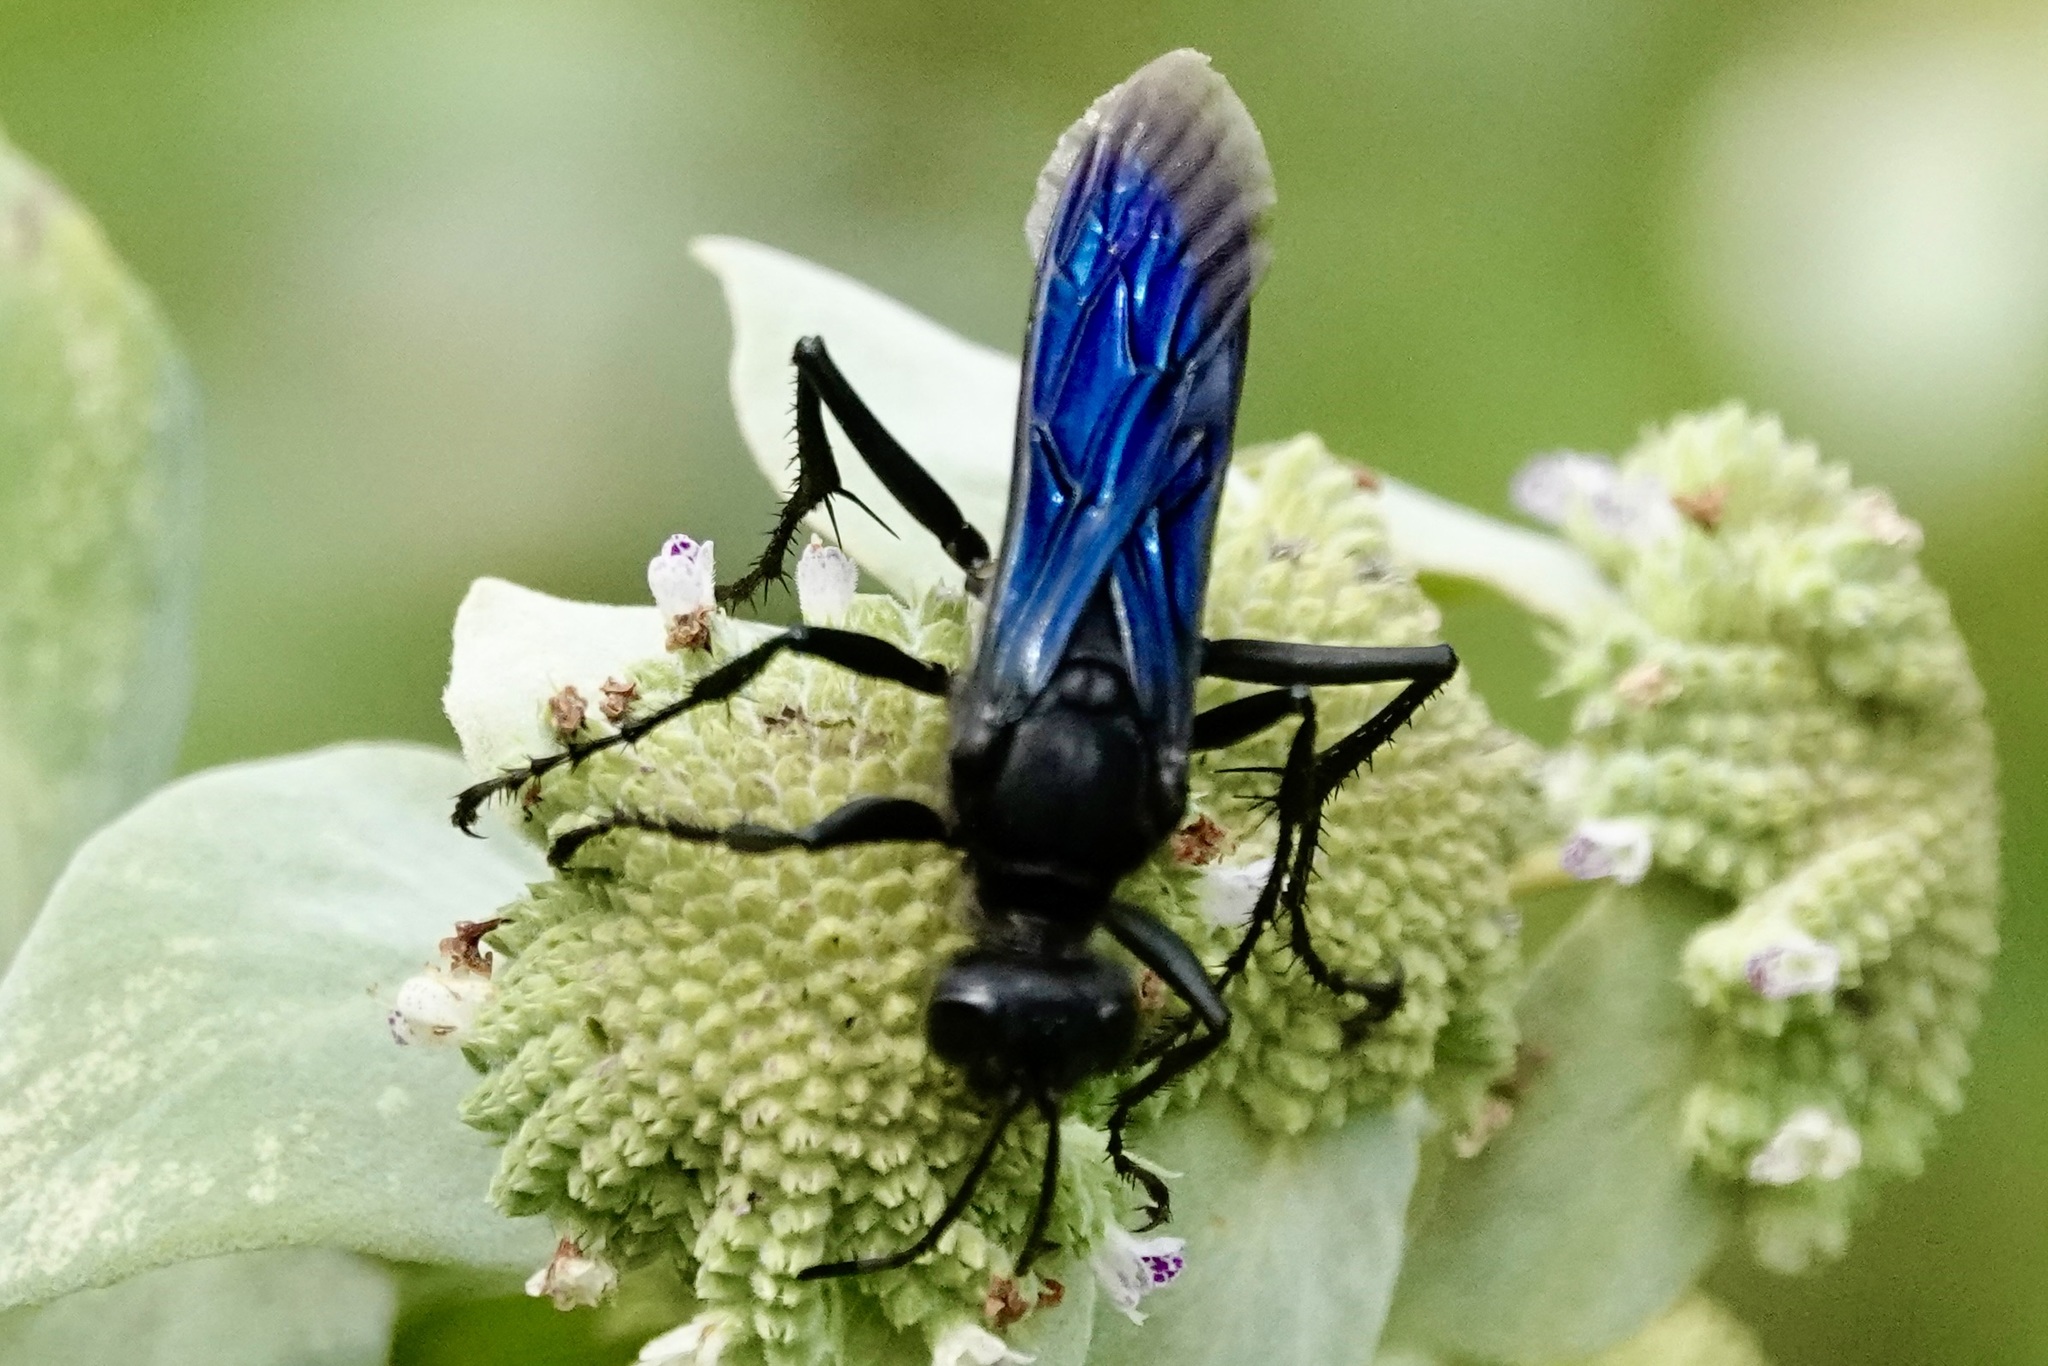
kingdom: Animalia
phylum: Arthropoda
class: Insecta
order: Hymenoptera
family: Sphecidae
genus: Sphex
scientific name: Sphex pensylvanicus
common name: Great black digger wasp
